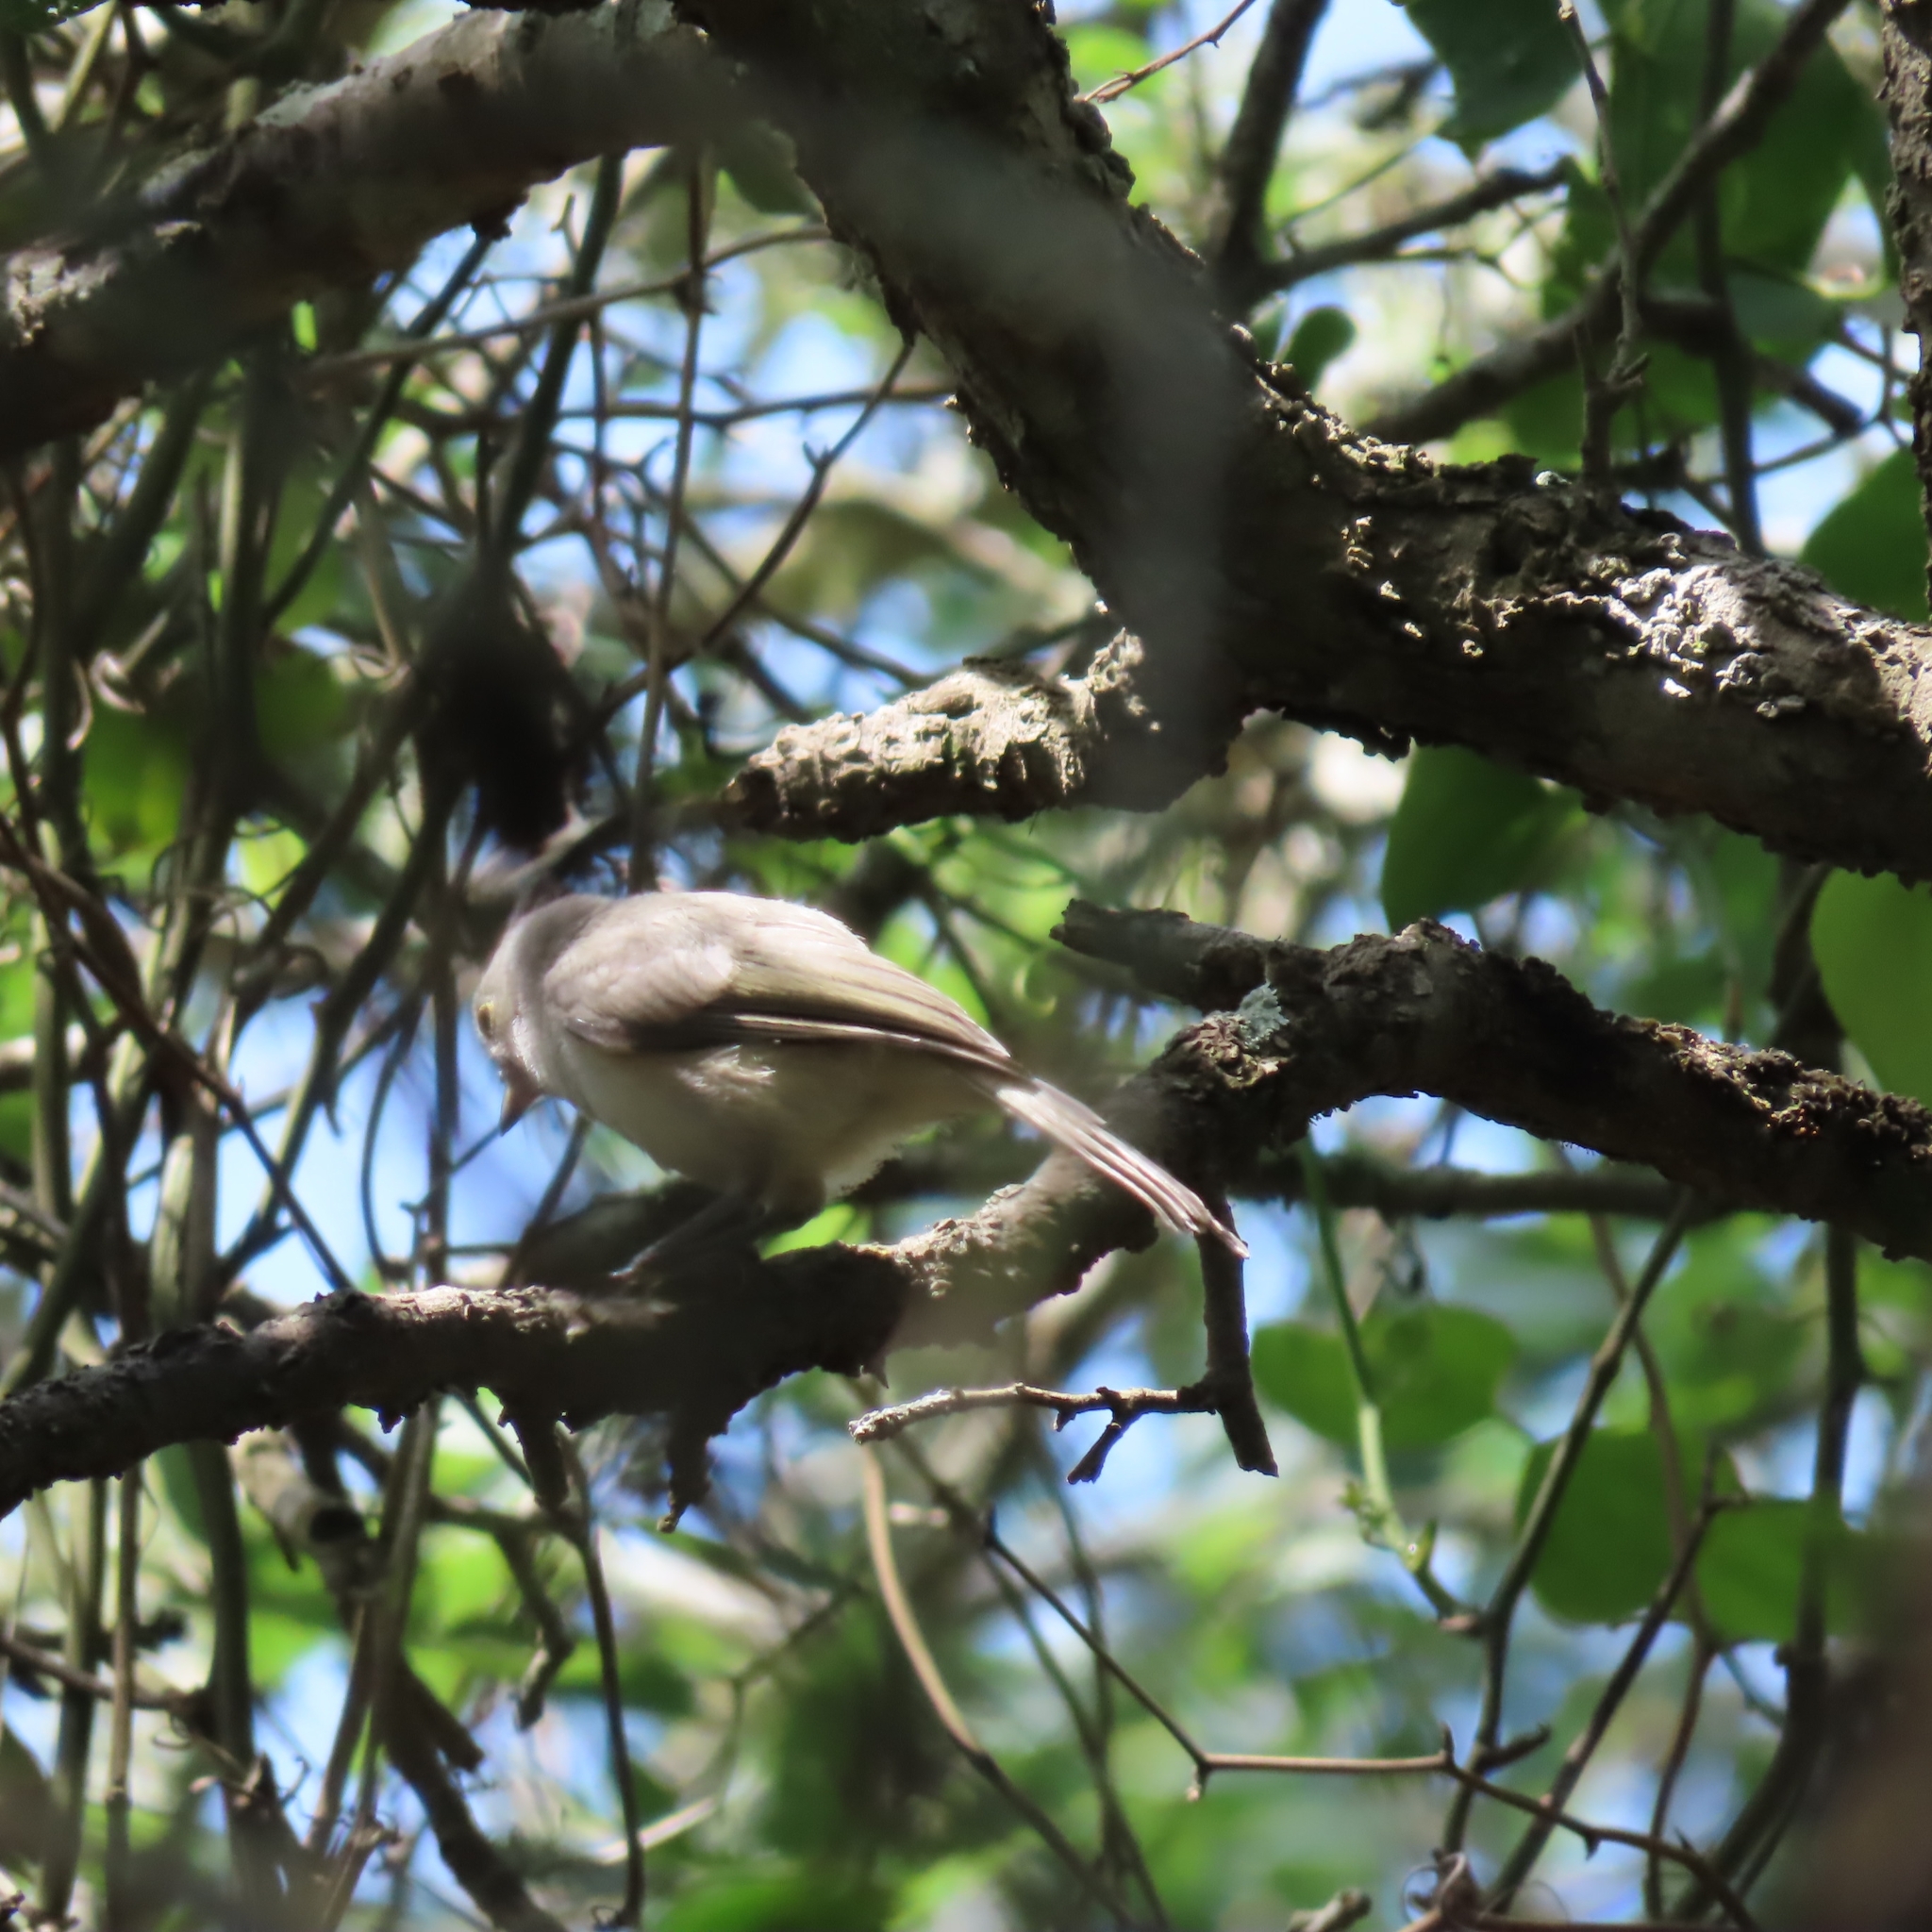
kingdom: Animalia
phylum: Chordata
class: Aves
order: Passeriformes
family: Paridae
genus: Baeolophus
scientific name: Baeolophus atricristatus
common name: Black-crested titmouse
